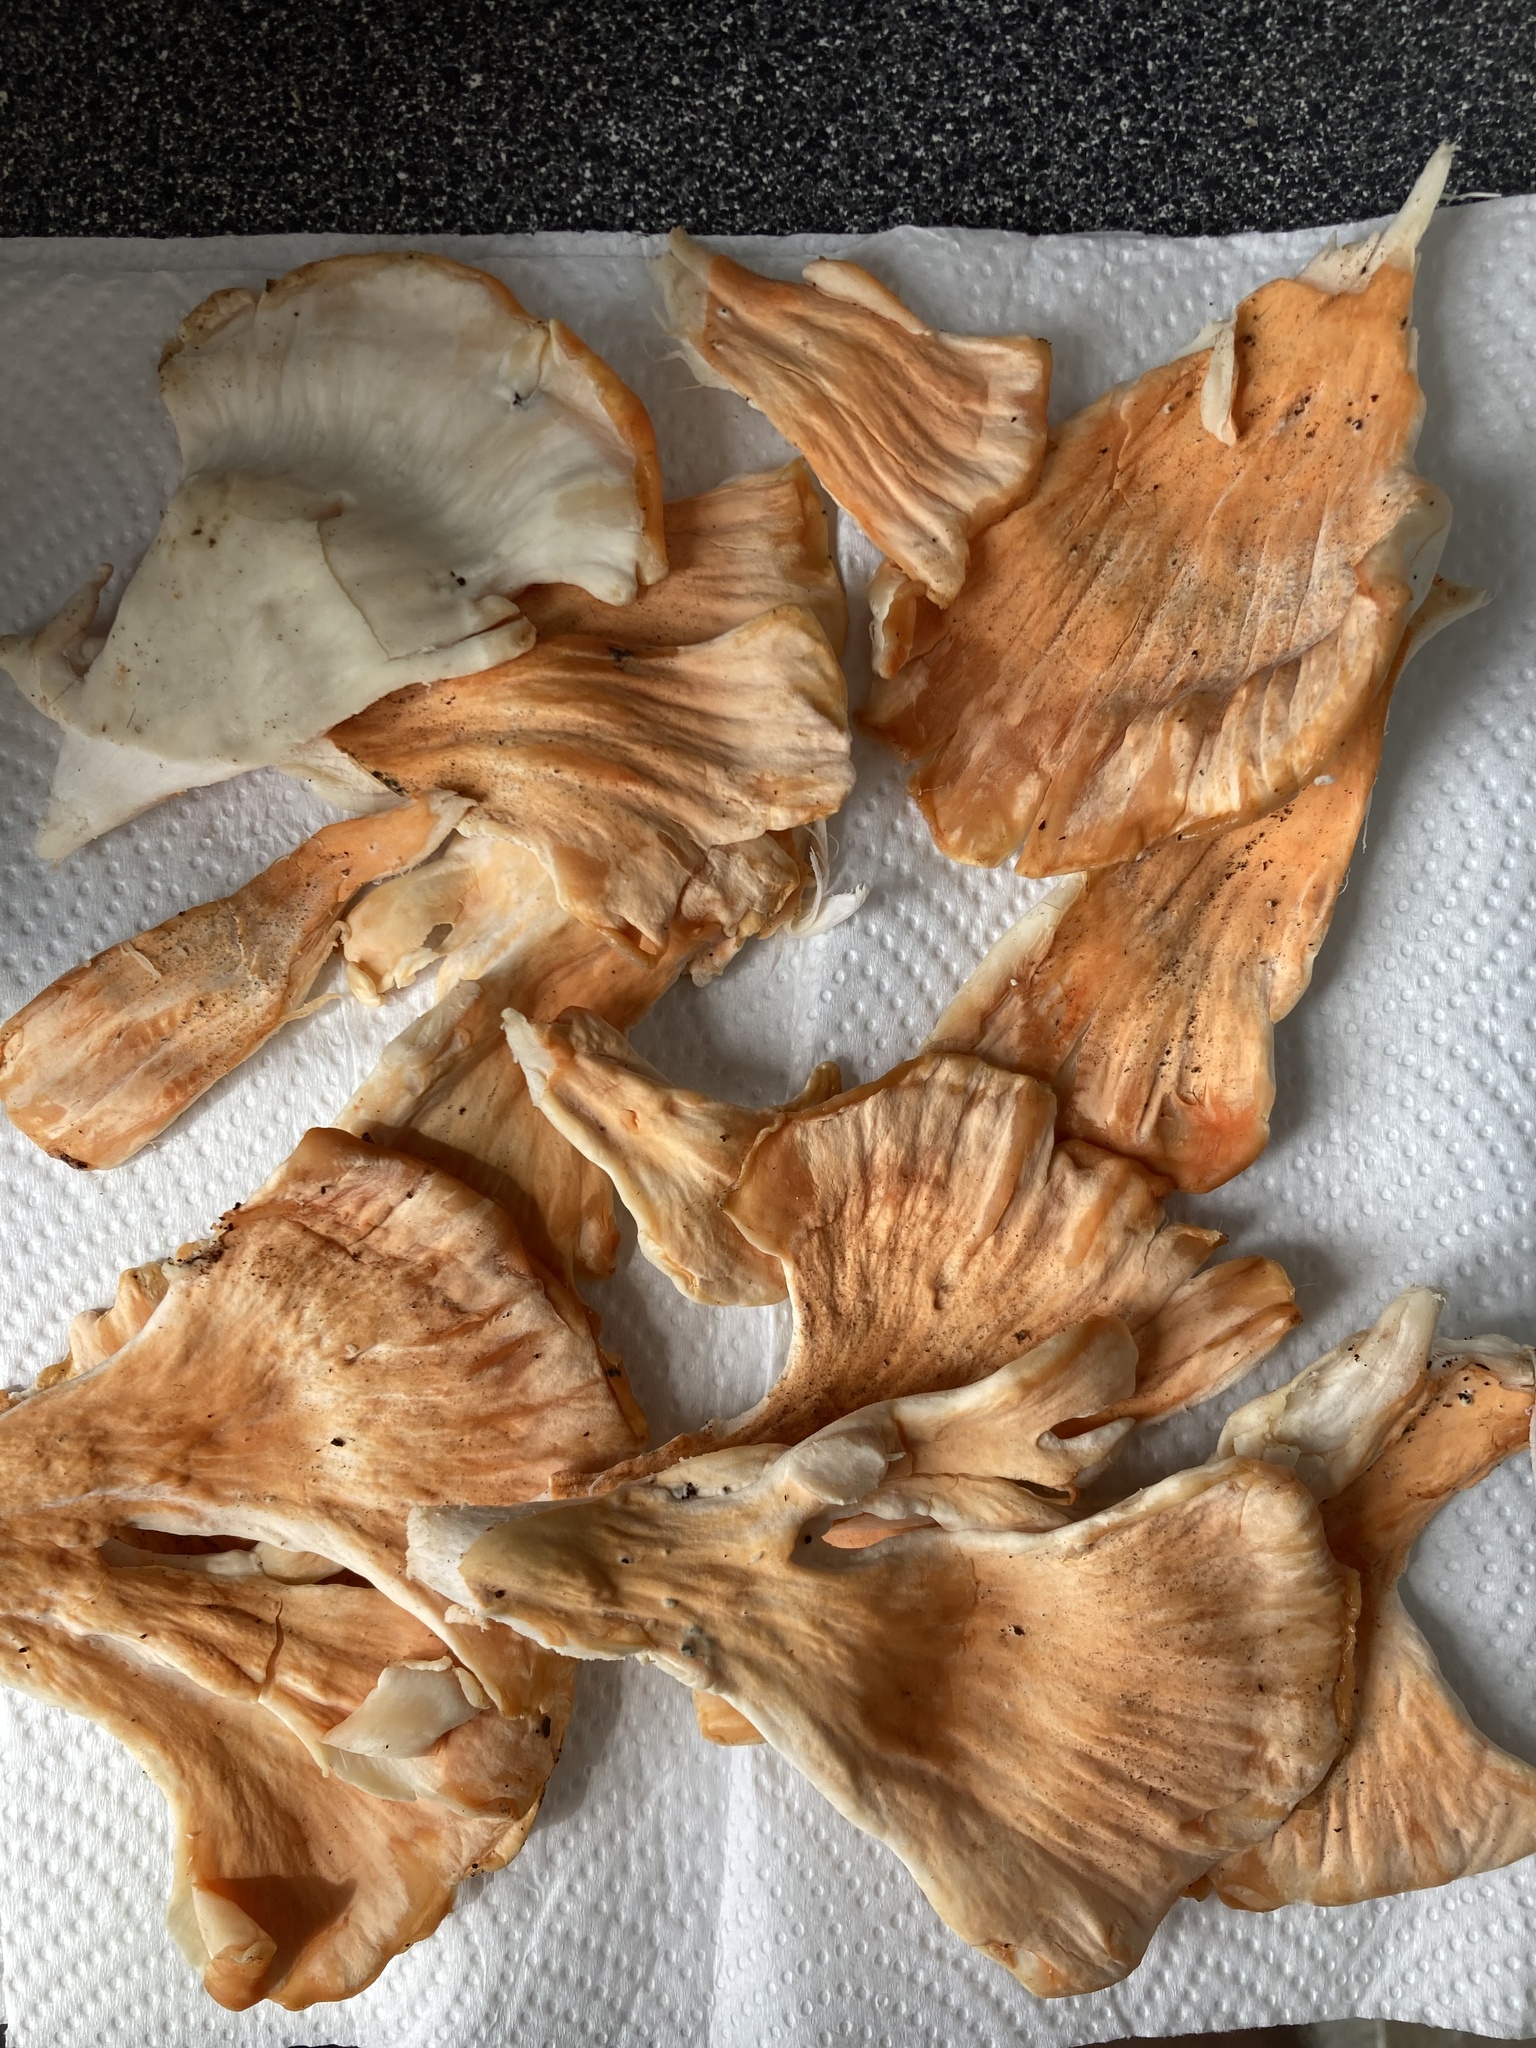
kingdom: Fungi
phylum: Basidiomycota
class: Agaricomycetes
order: Polyporales
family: Laetiporaceae
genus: Laetiporus
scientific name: Laetiporus sulphureus
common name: Chicken of the woods
